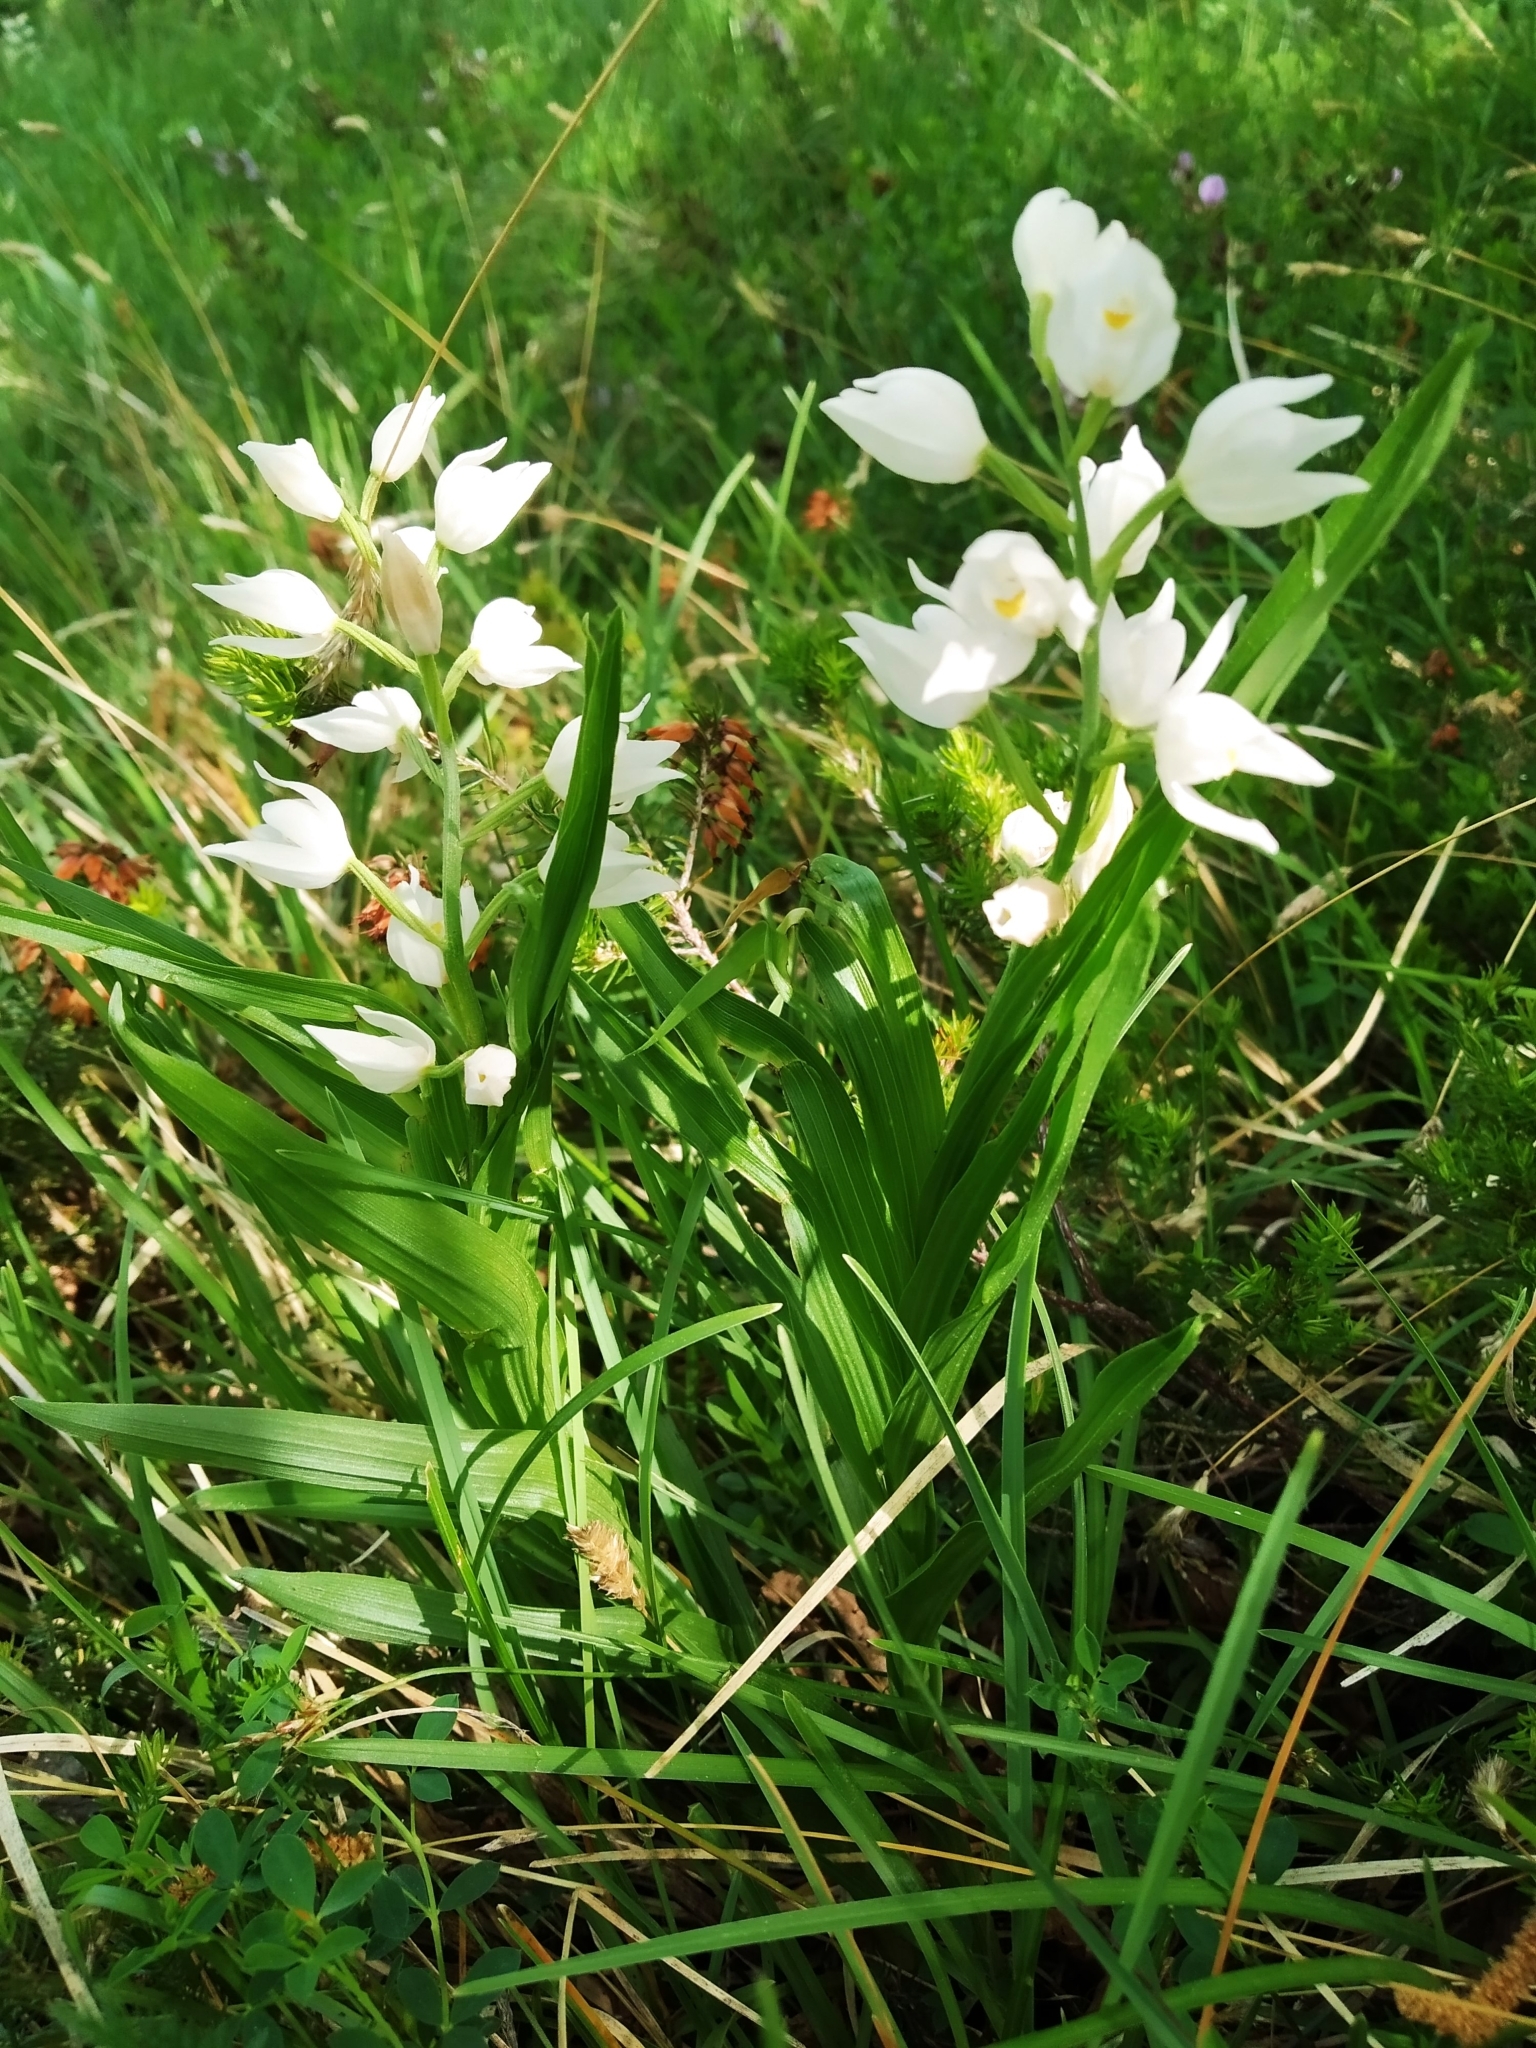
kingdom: Plantae
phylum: Tracheophyta
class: Liliopsida
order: Asparagales
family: Orchidaceae
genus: Cephalanthera
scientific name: Cephalanthera longifolia
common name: Narrow-leaved helleborine
